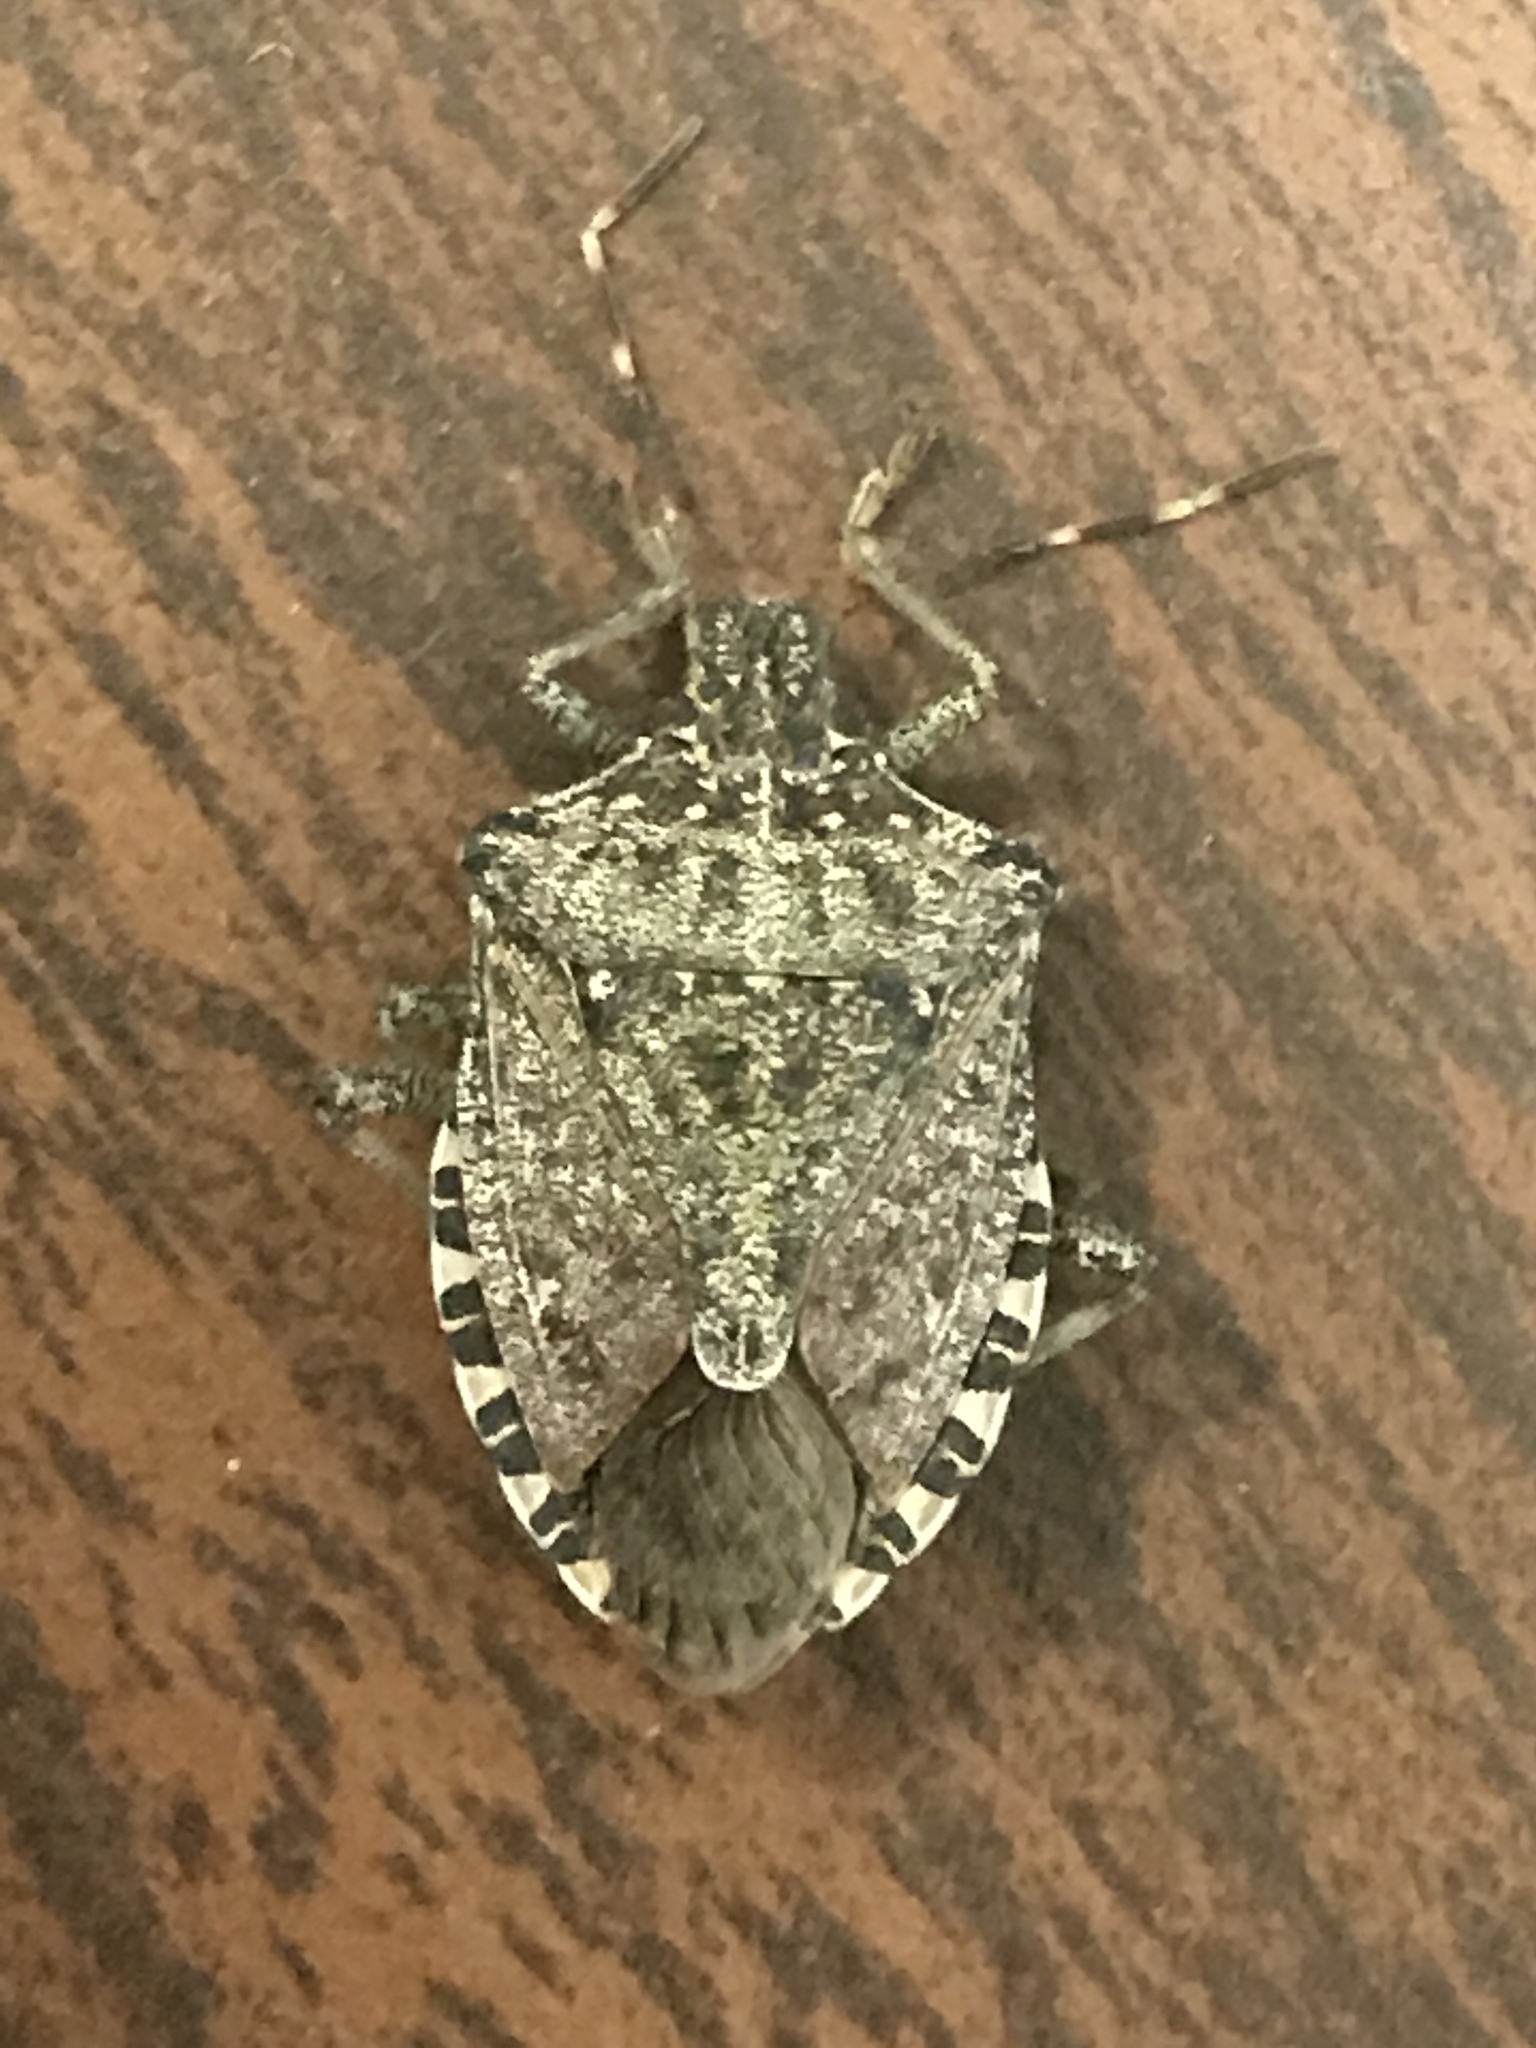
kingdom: Animalia
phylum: Arthropoda
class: Insecta
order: Hemiptera
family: Pentatomidae
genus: Halyomorpha
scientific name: Halyomorpha halys
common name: Brown marmorated stink bug
